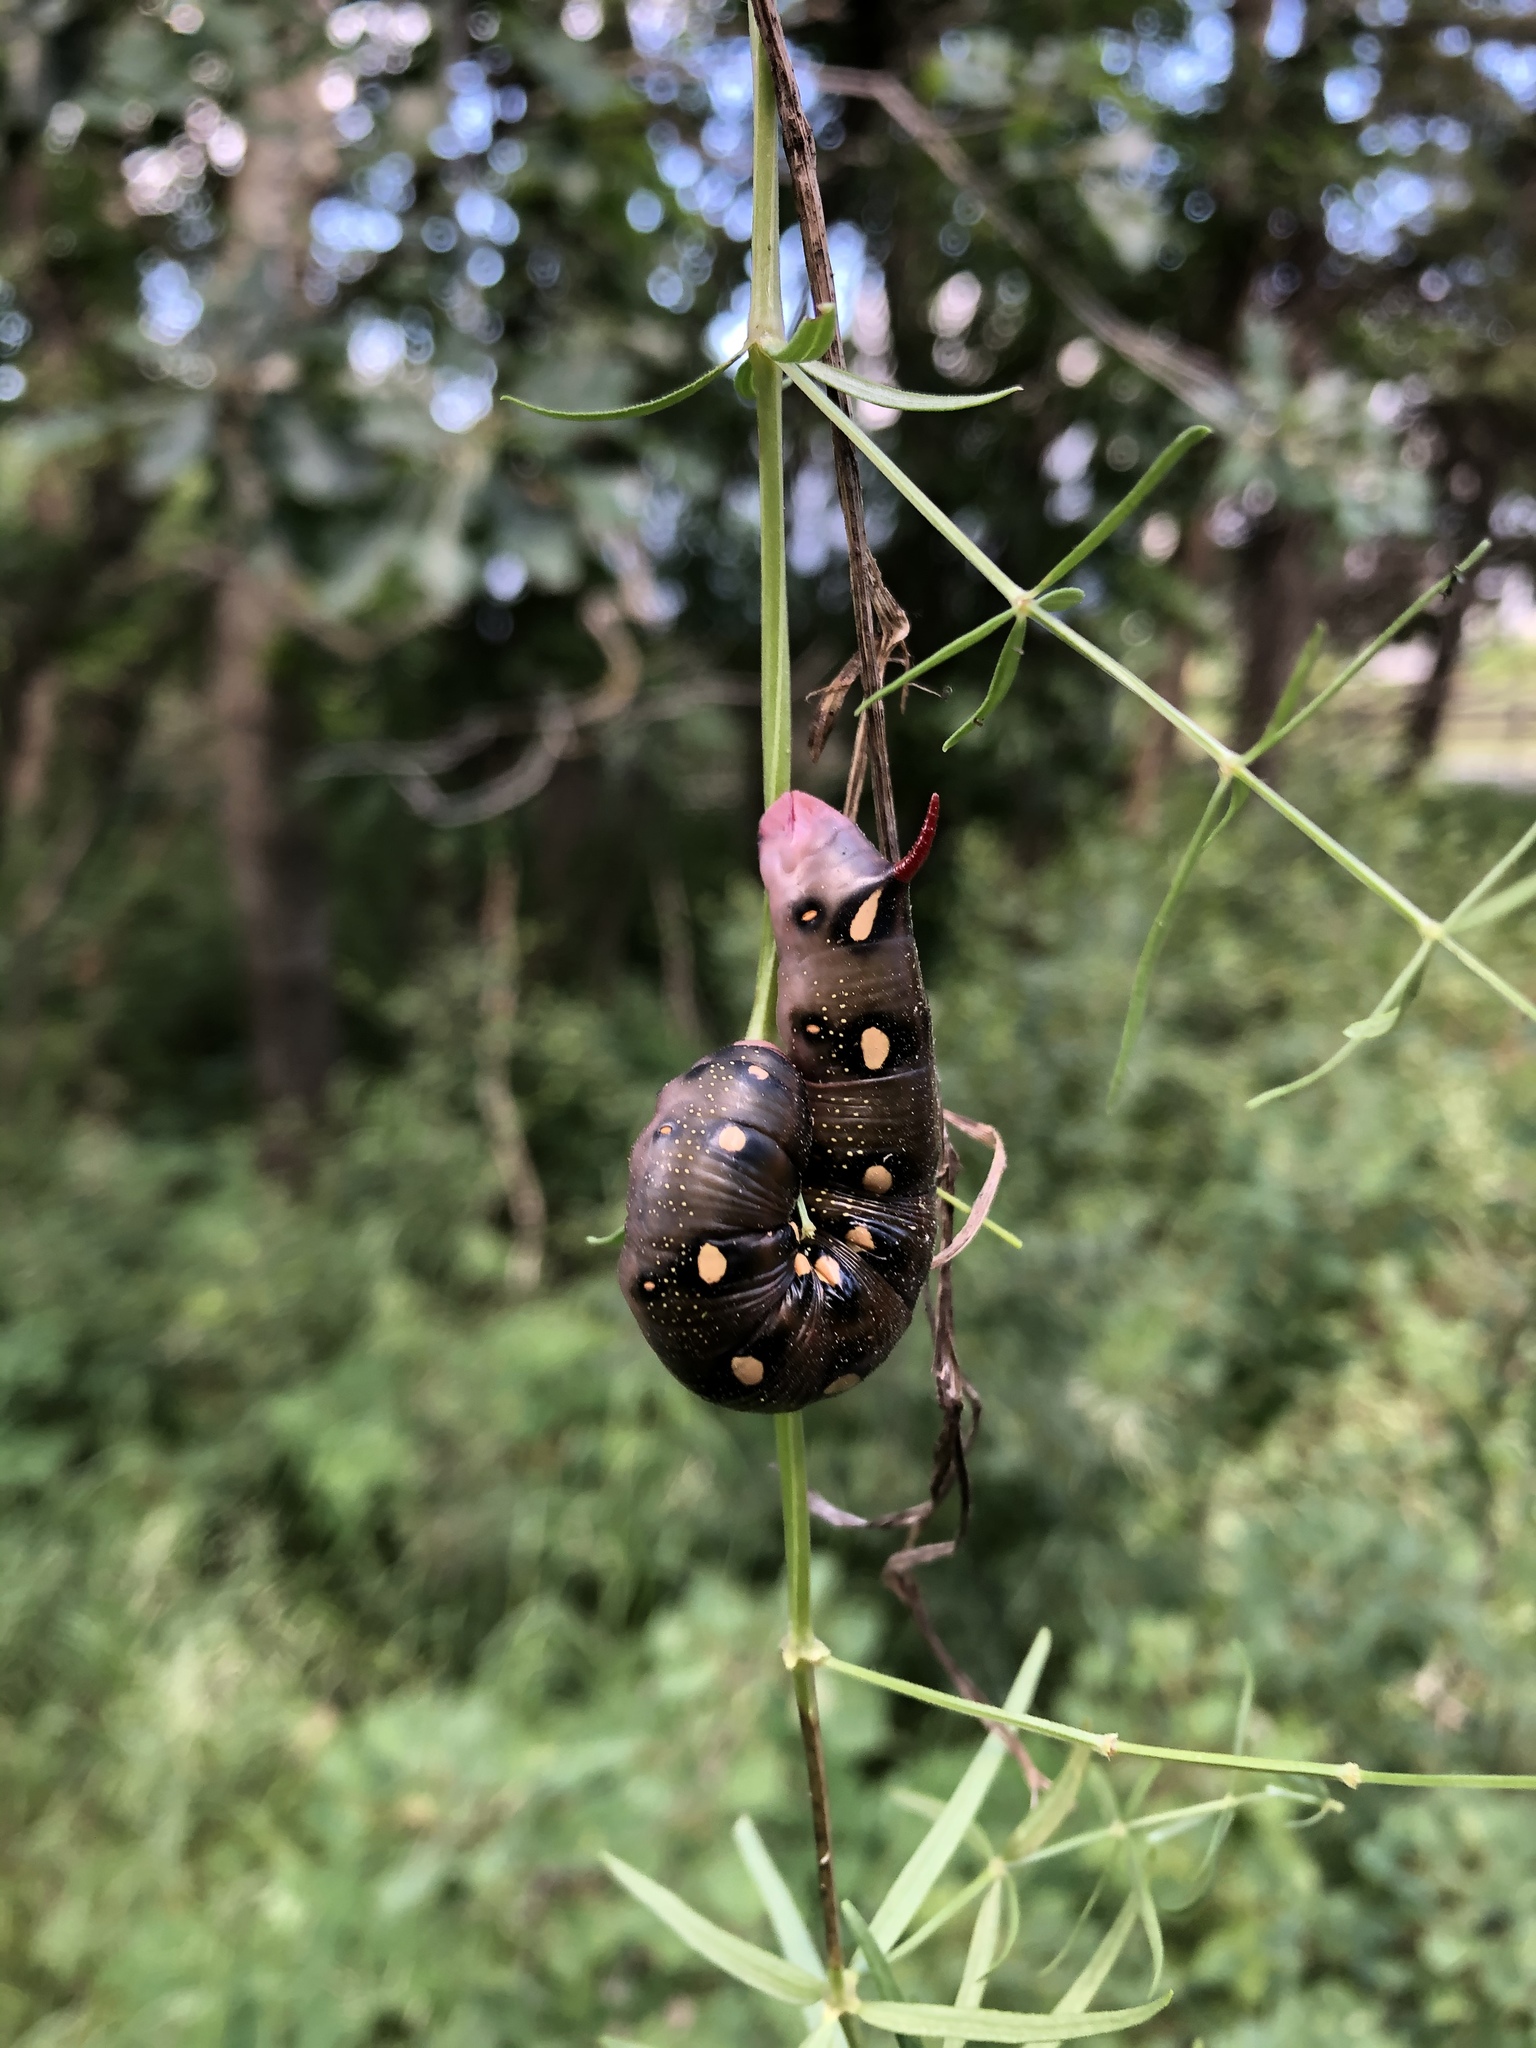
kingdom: Animalia
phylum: Arthropoda
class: Insecta
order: Lepidoptera
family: Sphingidae
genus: Hyles
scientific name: Hyles gallii
